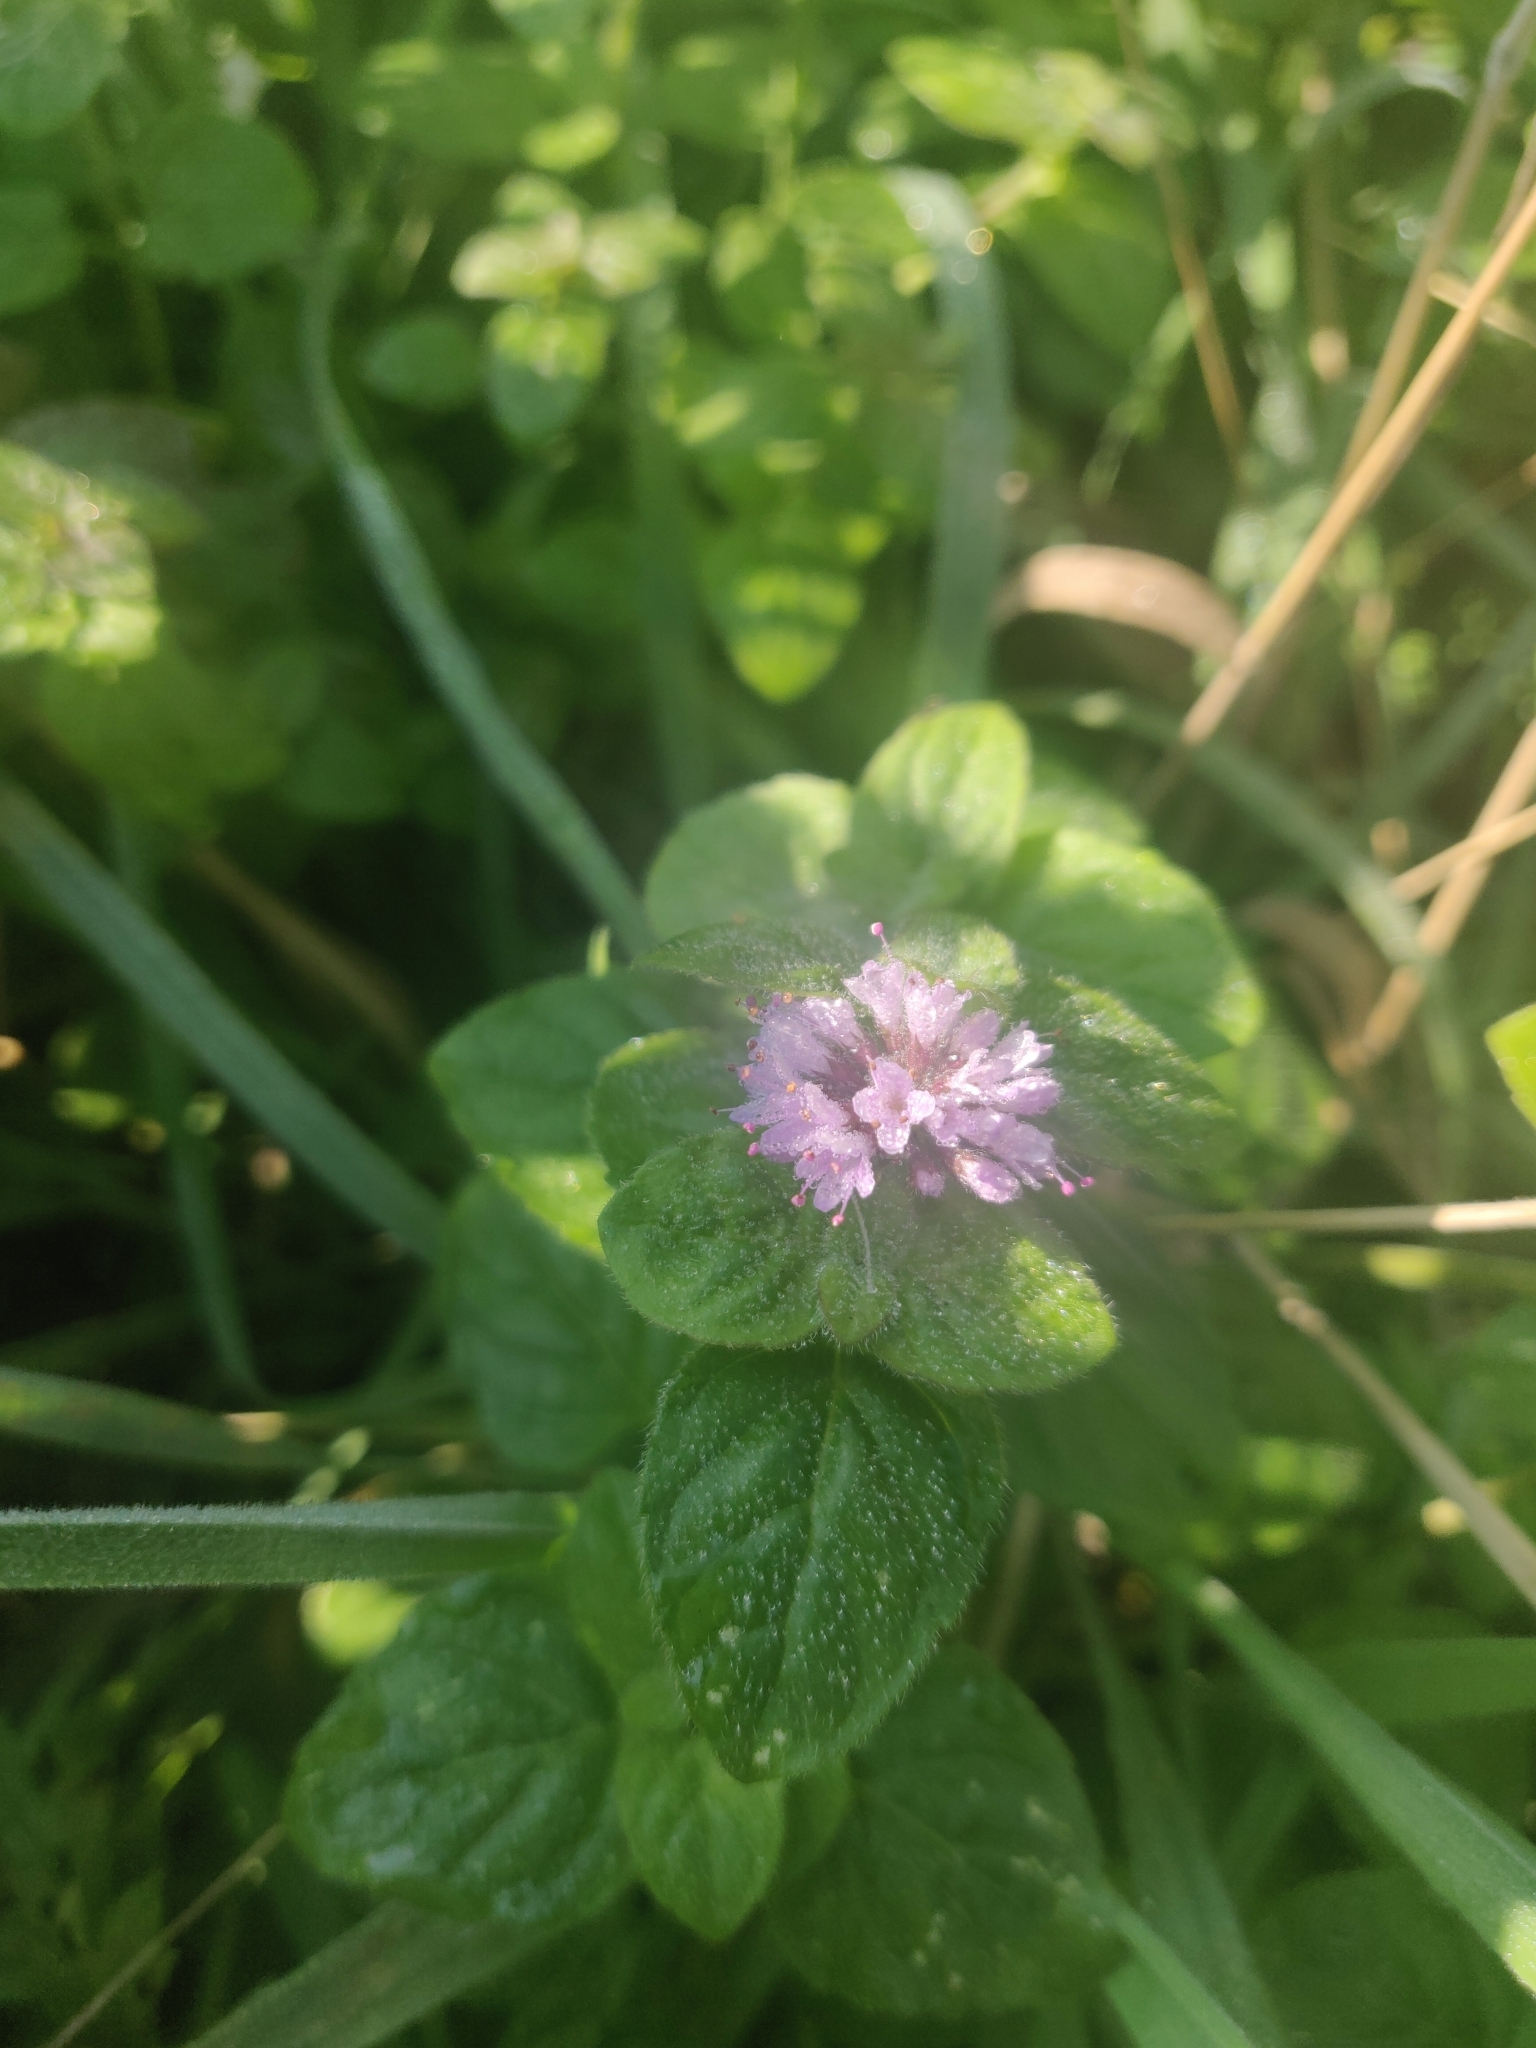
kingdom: Plantae
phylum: Tracheophyta
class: Magnoliopsida
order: Lamiales
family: Lamiaceae
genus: Mentha
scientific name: Mentha aquatica
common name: Water mint
